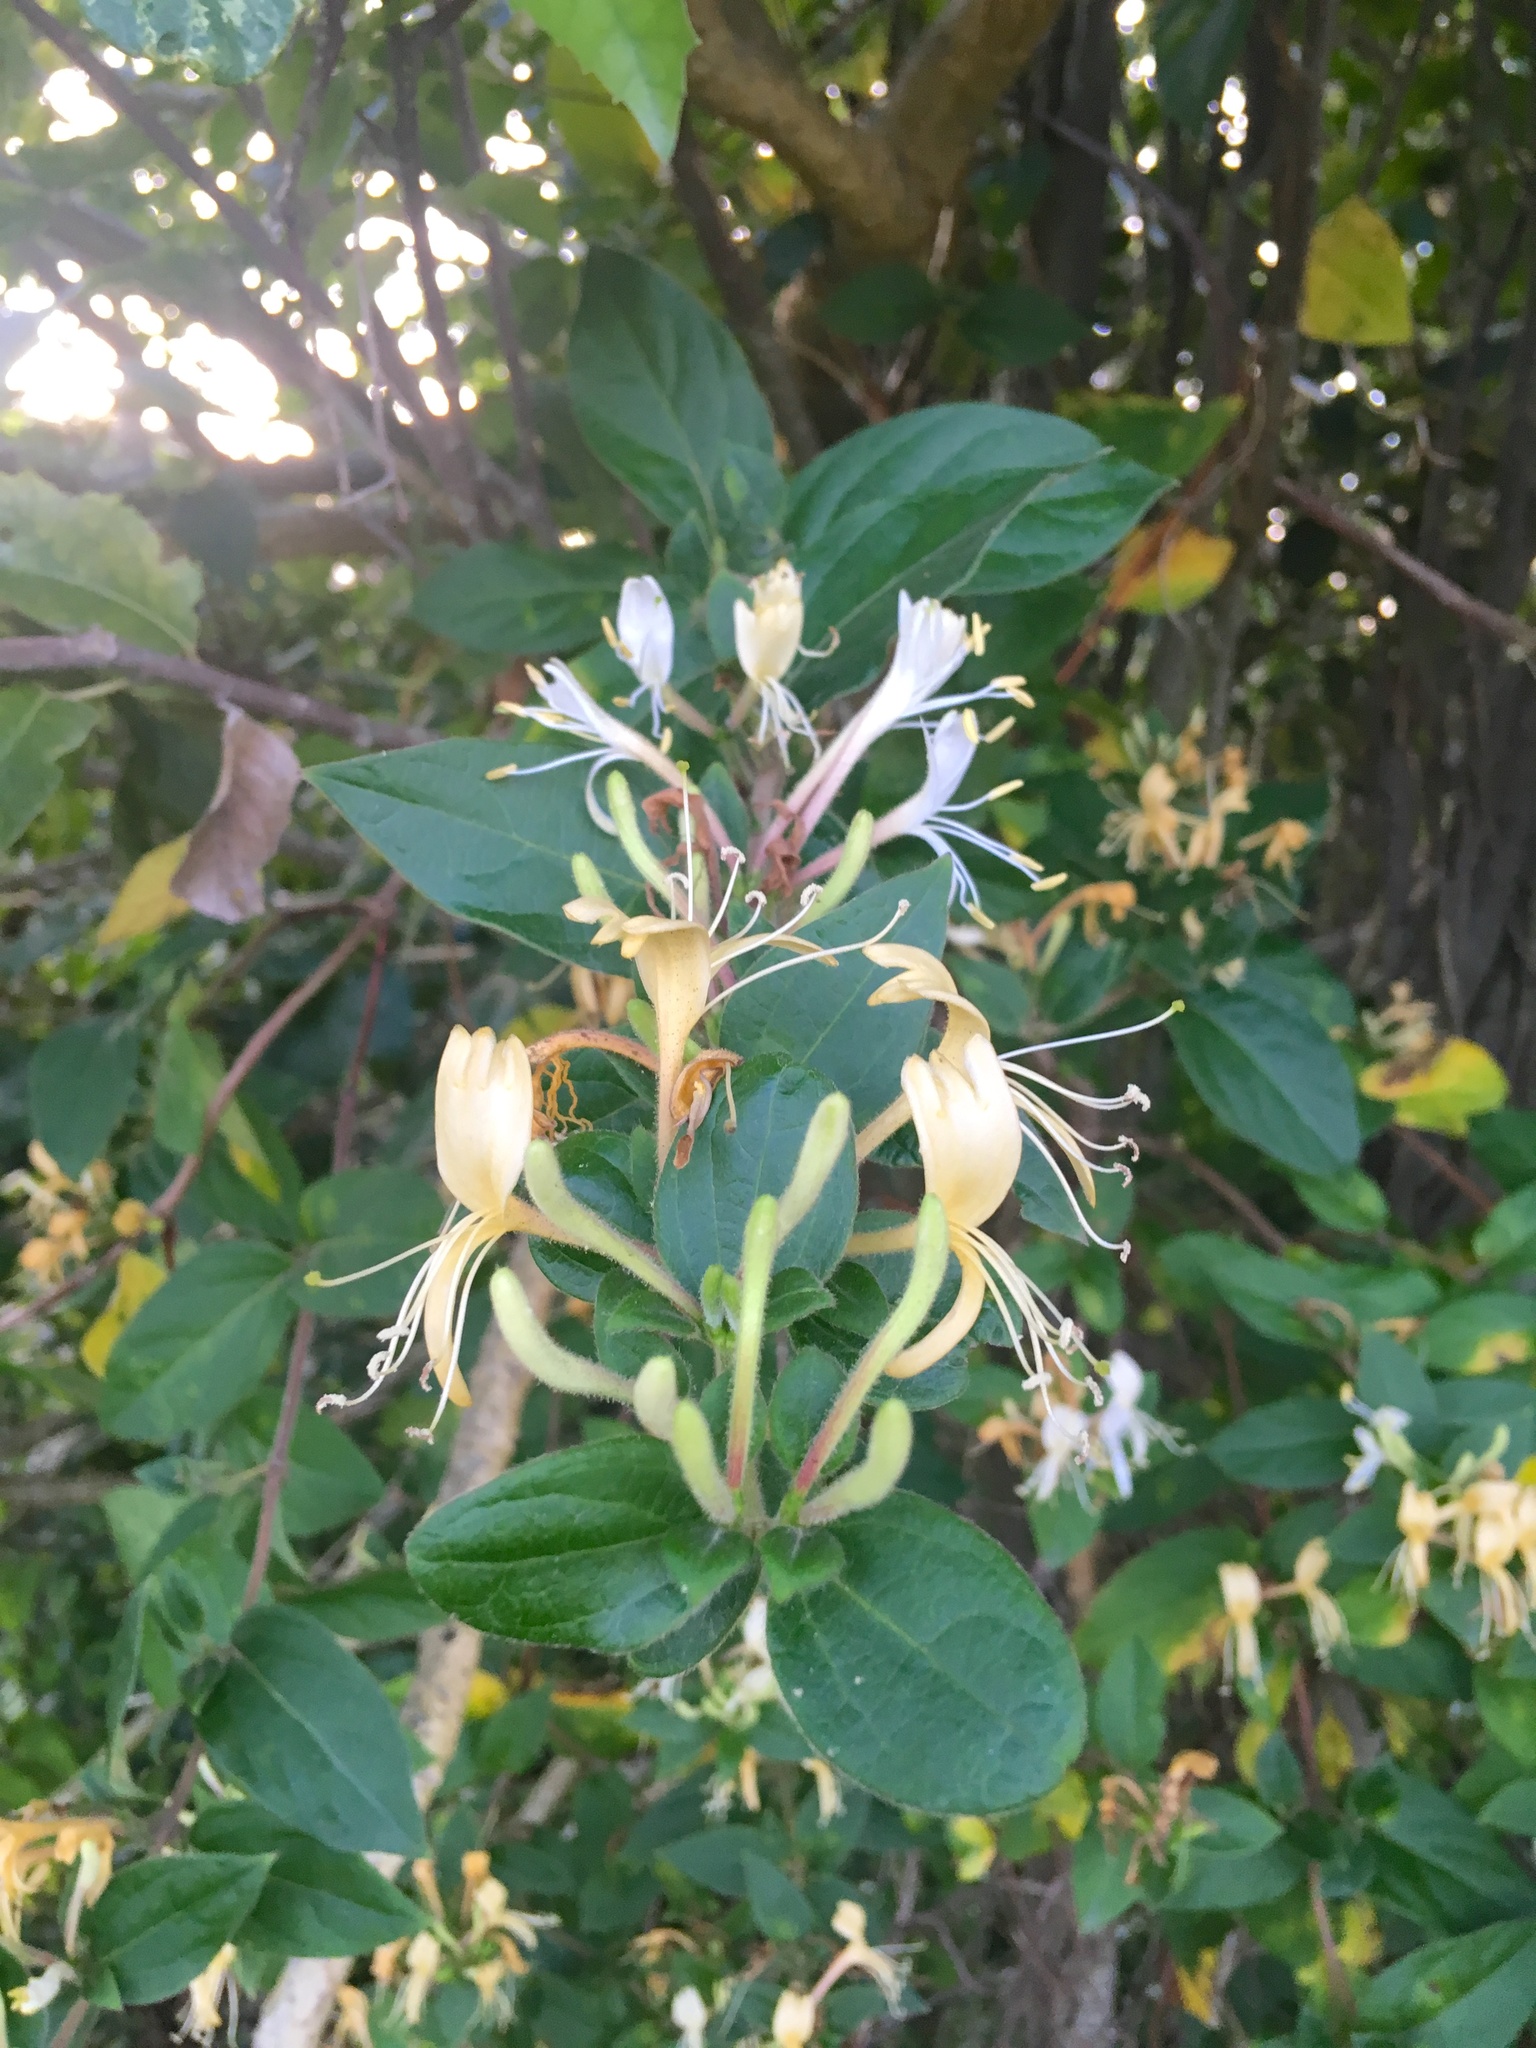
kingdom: Plantae
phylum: Tracheophyta
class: Magnoliopsida
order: Dipsacales
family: Caprifoliaceae
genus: Lonicera
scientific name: Lonicera japonica
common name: Japanese honeysuckle
